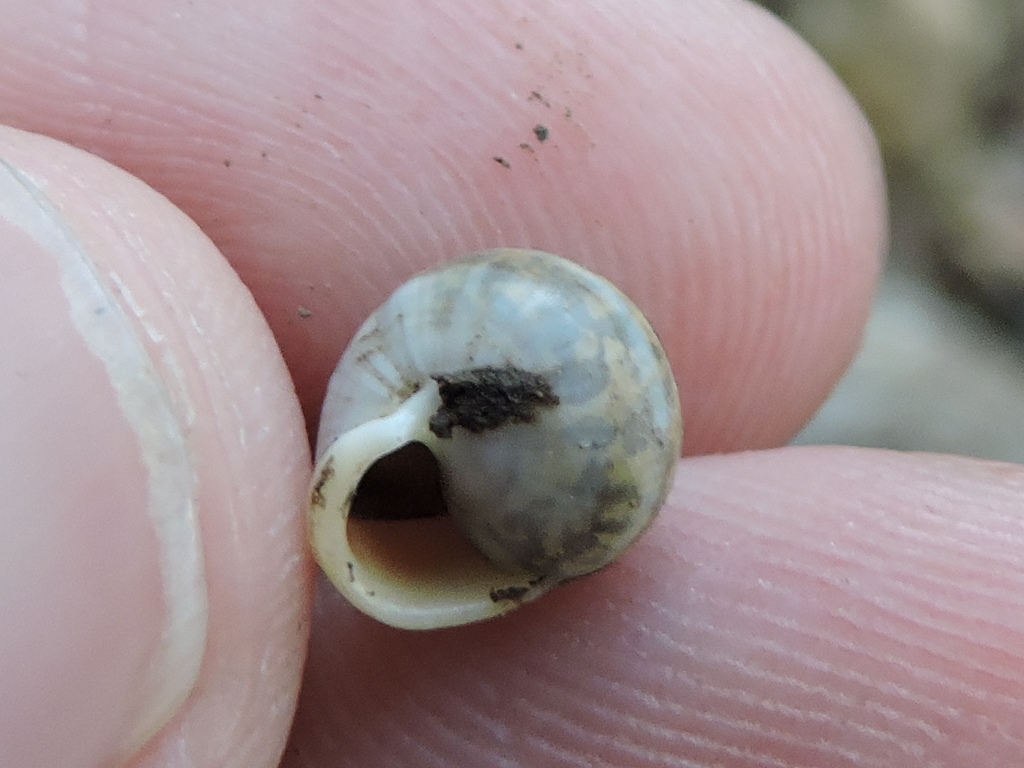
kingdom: Animalia
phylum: Mollusca
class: Gastropoda
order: Cycloneritida
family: Helicinidae
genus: Helicina
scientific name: Helicina orbiculata
